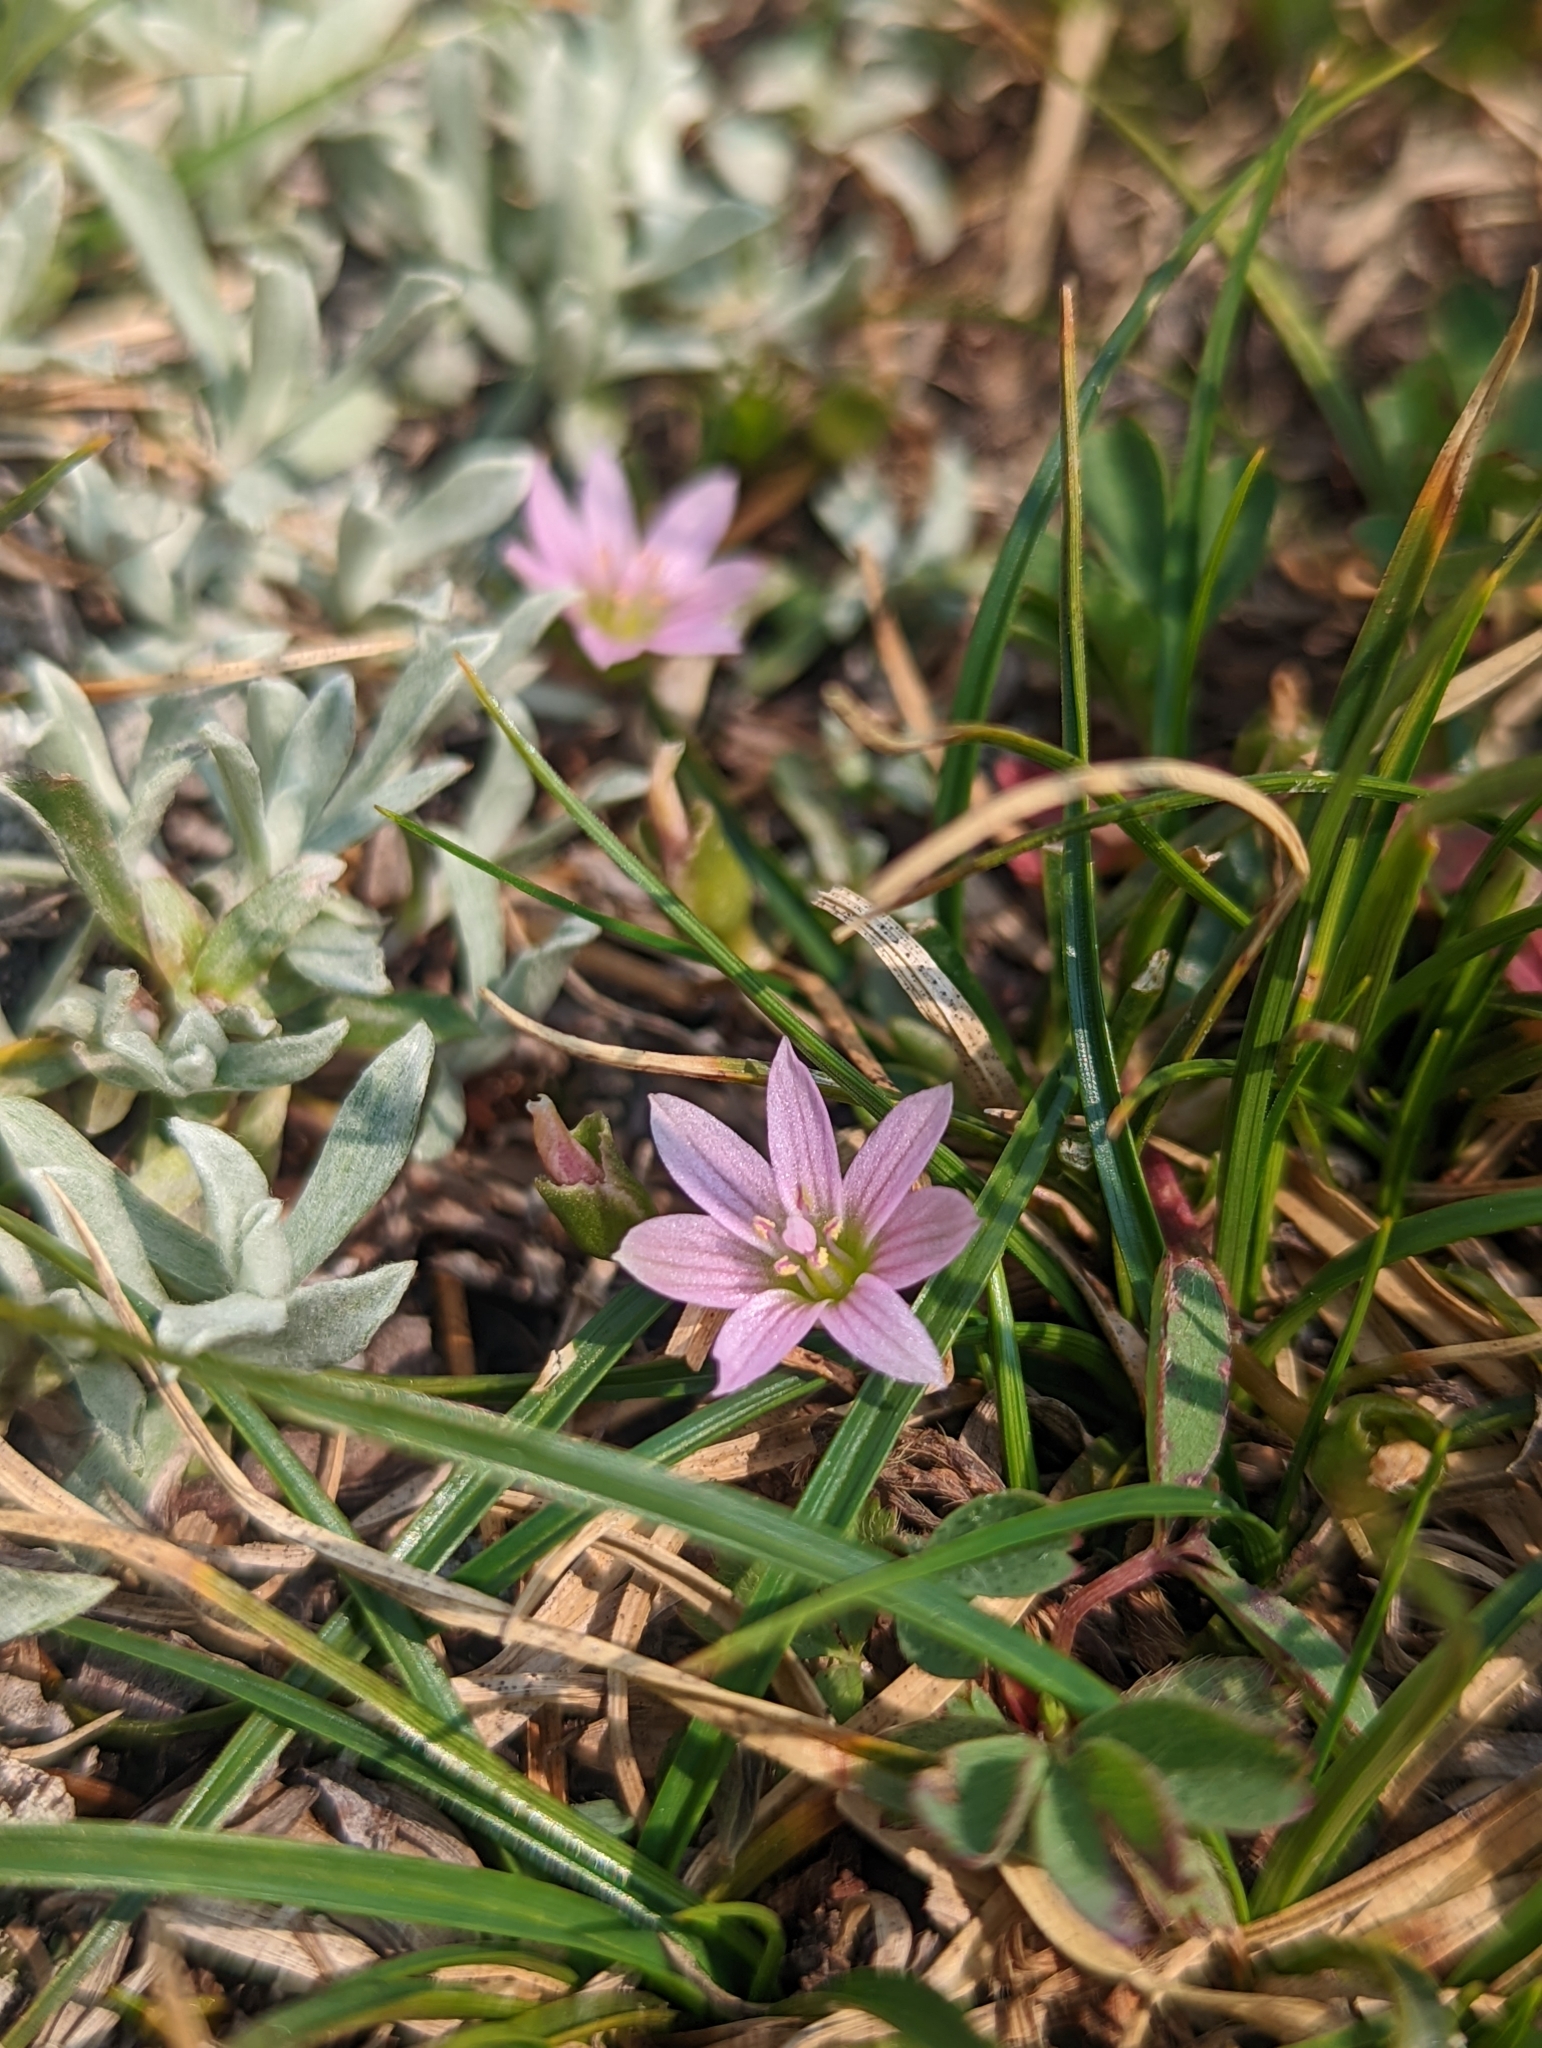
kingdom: Plantae
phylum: Tracheophyta
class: Magnoliopsida
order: Caryophyllales
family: Montiaceae
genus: Lewisia
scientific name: Lewisia pygmaea
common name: Alpine bitterroot
